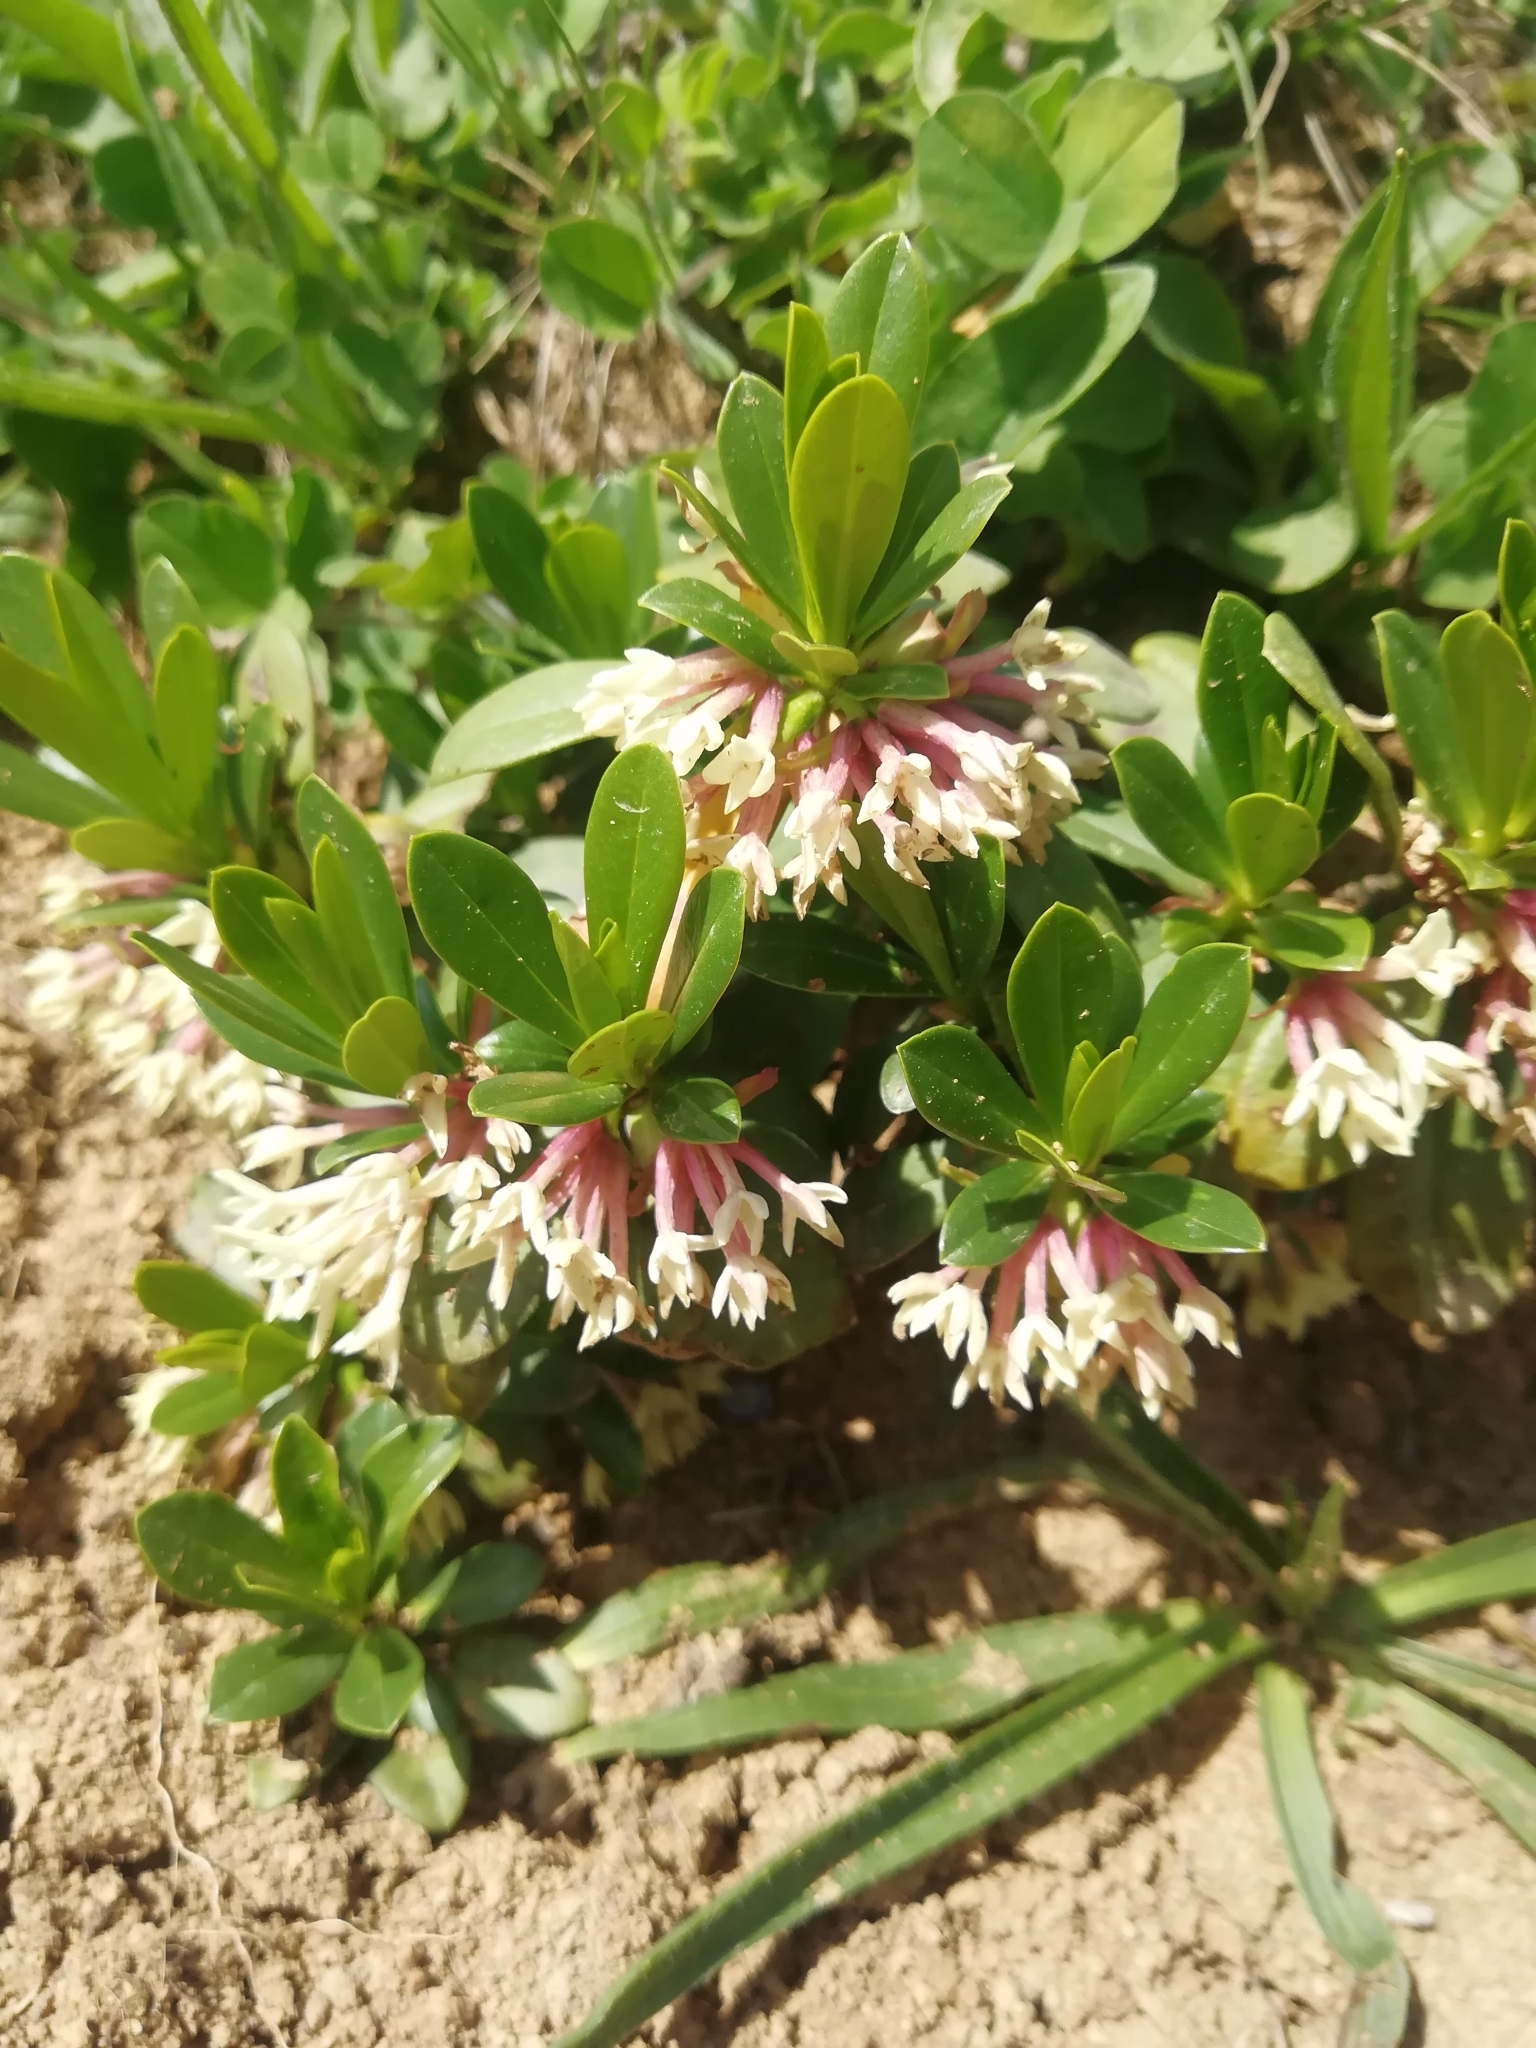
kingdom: Plantae
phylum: Tracheophyta
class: Magnoliopsida
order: Malvales
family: Thymelaeaceae
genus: Daphne
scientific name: Daphne glomerata
